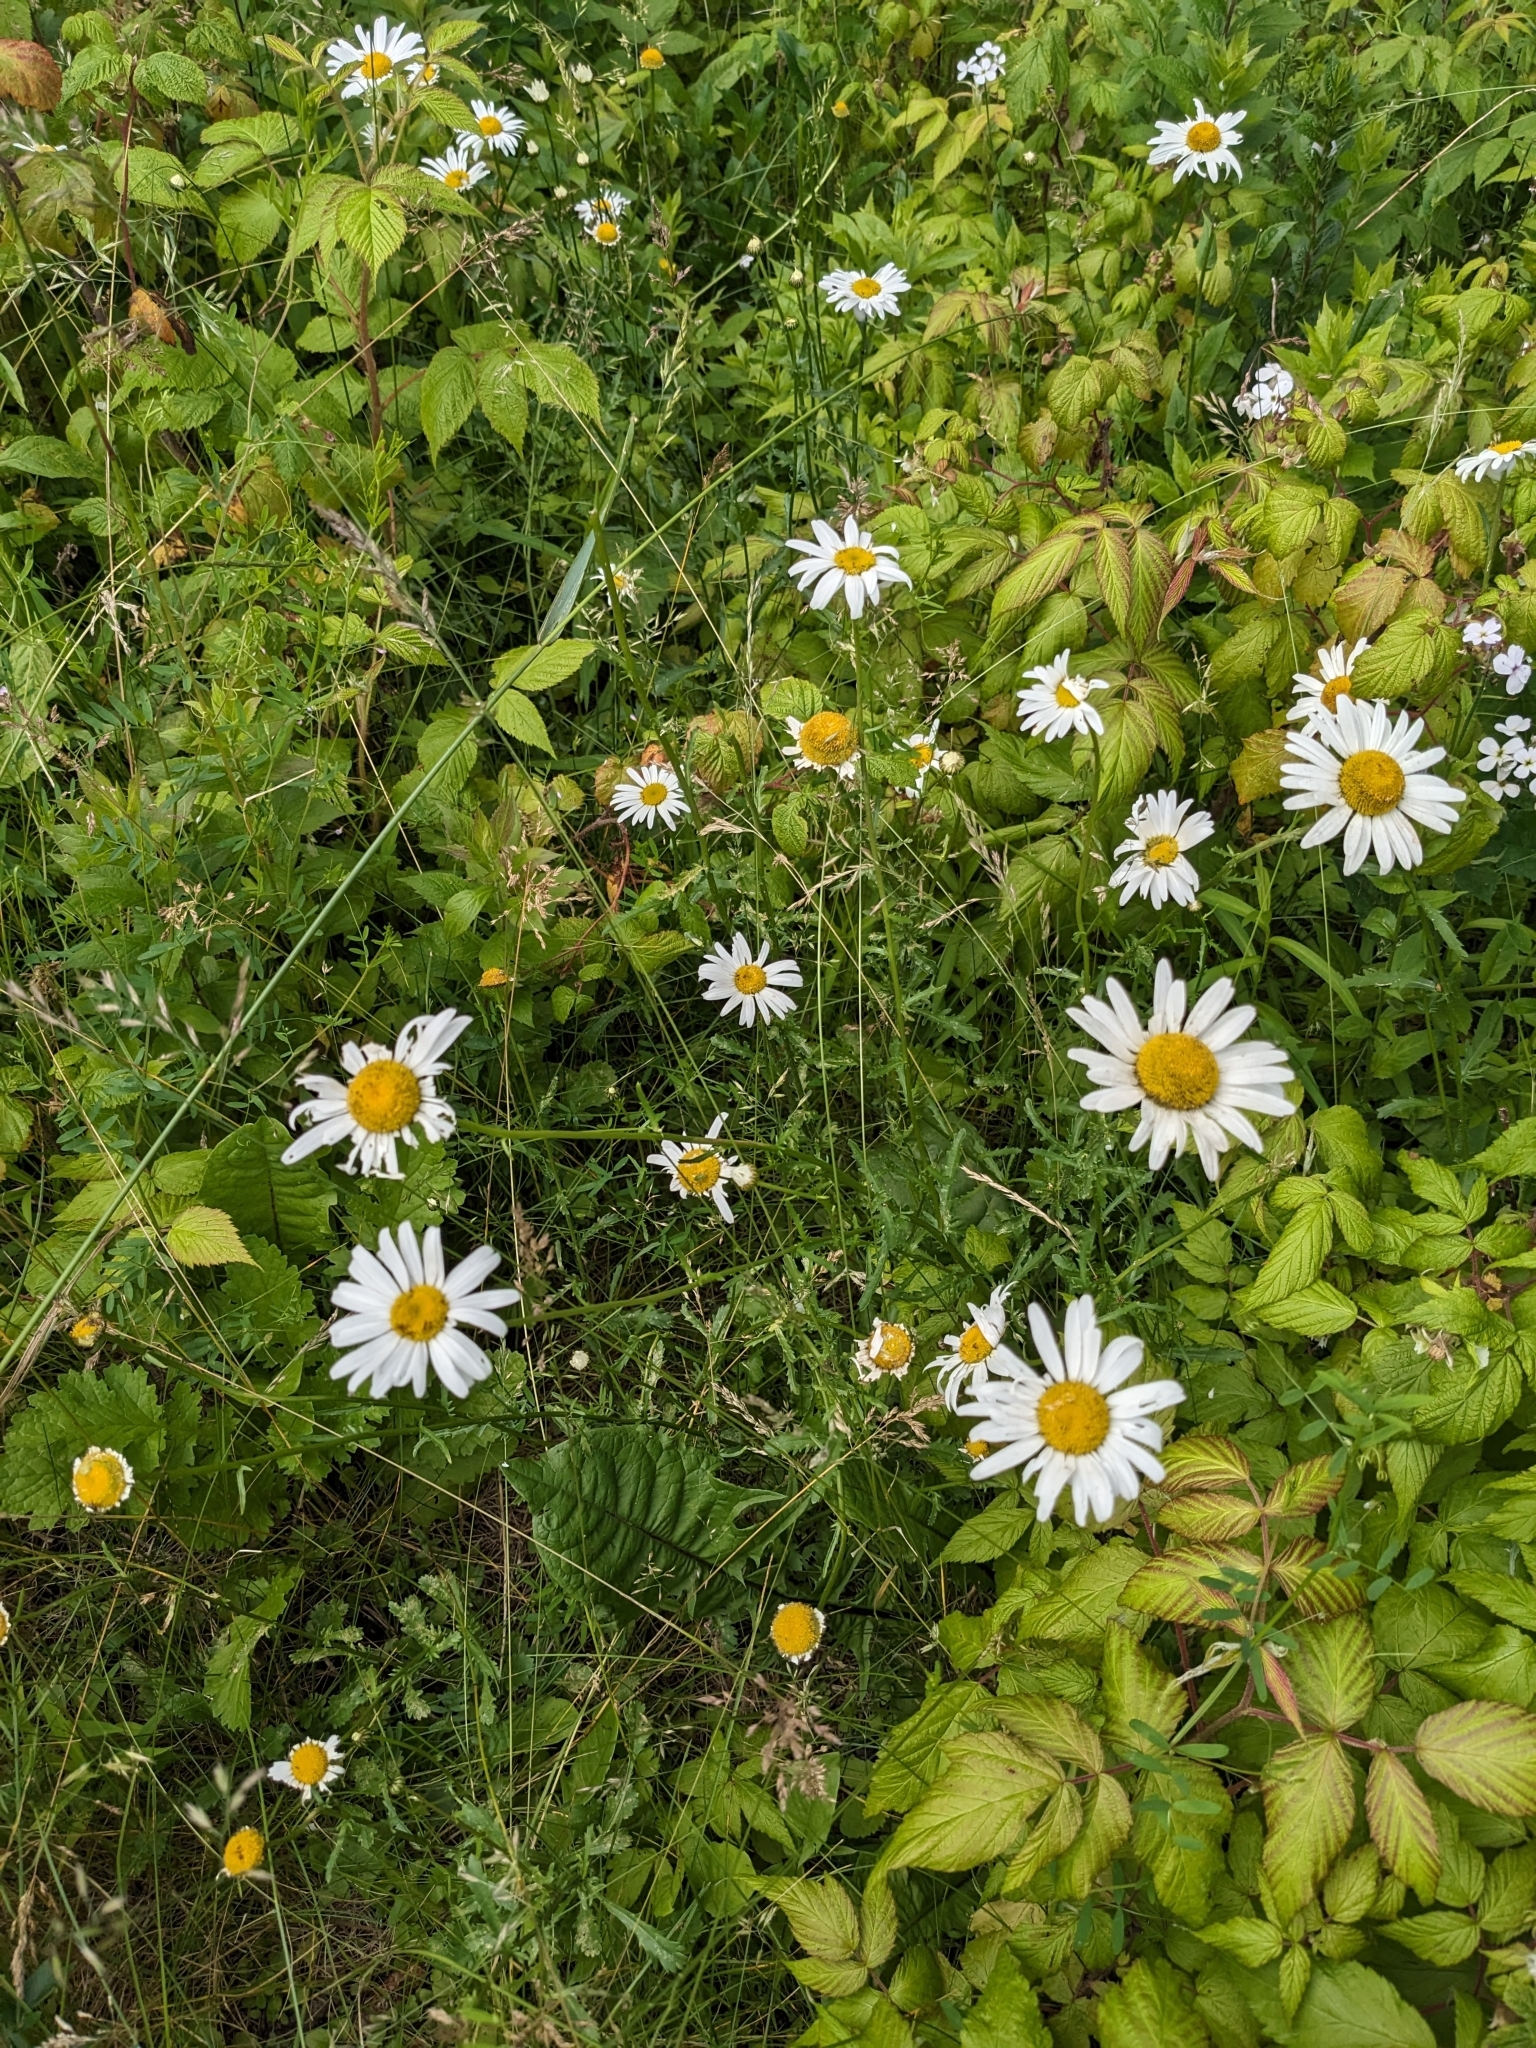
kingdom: Plantae
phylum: Tracheophyta
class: Magnoliopsida
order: Asterales
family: Asteraceae
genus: Leucanthemum
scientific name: Leucanthemum vulgare
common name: Oxeye daisy
